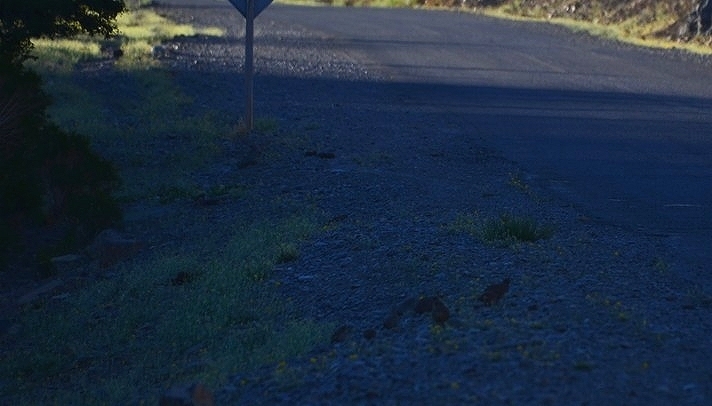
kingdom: Animalia
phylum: Chordata
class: Aves
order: Galliformes
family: Odontophoridae
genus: Callipepla
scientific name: Callipepla californica
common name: California quail
